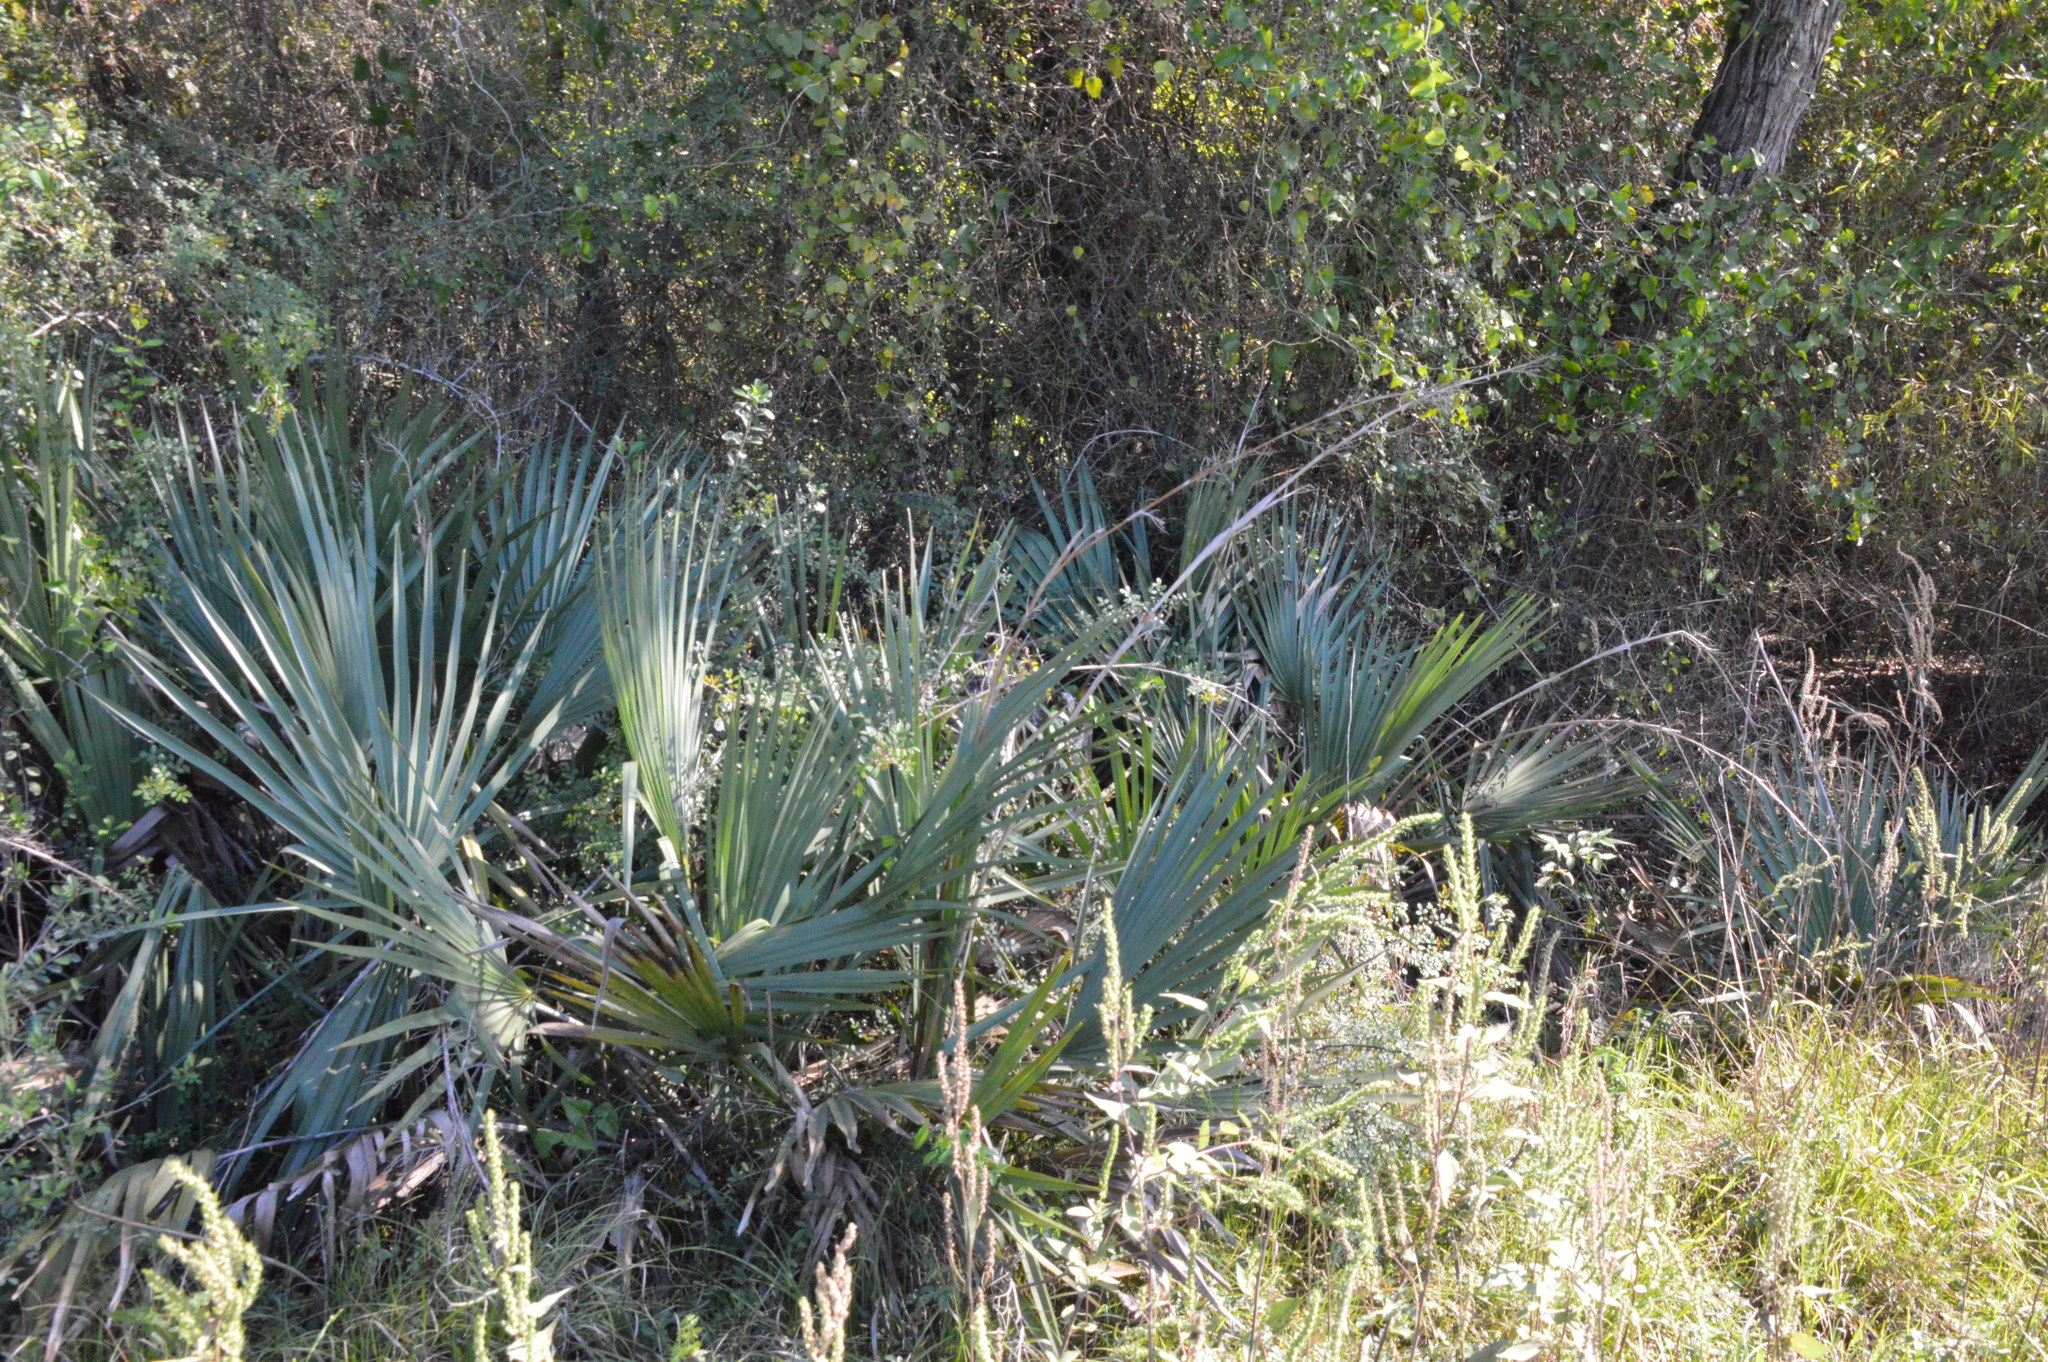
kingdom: Plantae
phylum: Tracheophyta
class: Liliopsida
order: Arecales
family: Arecaceae
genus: Sabal
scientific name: Sabal minor
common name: Dwarf palmetto
